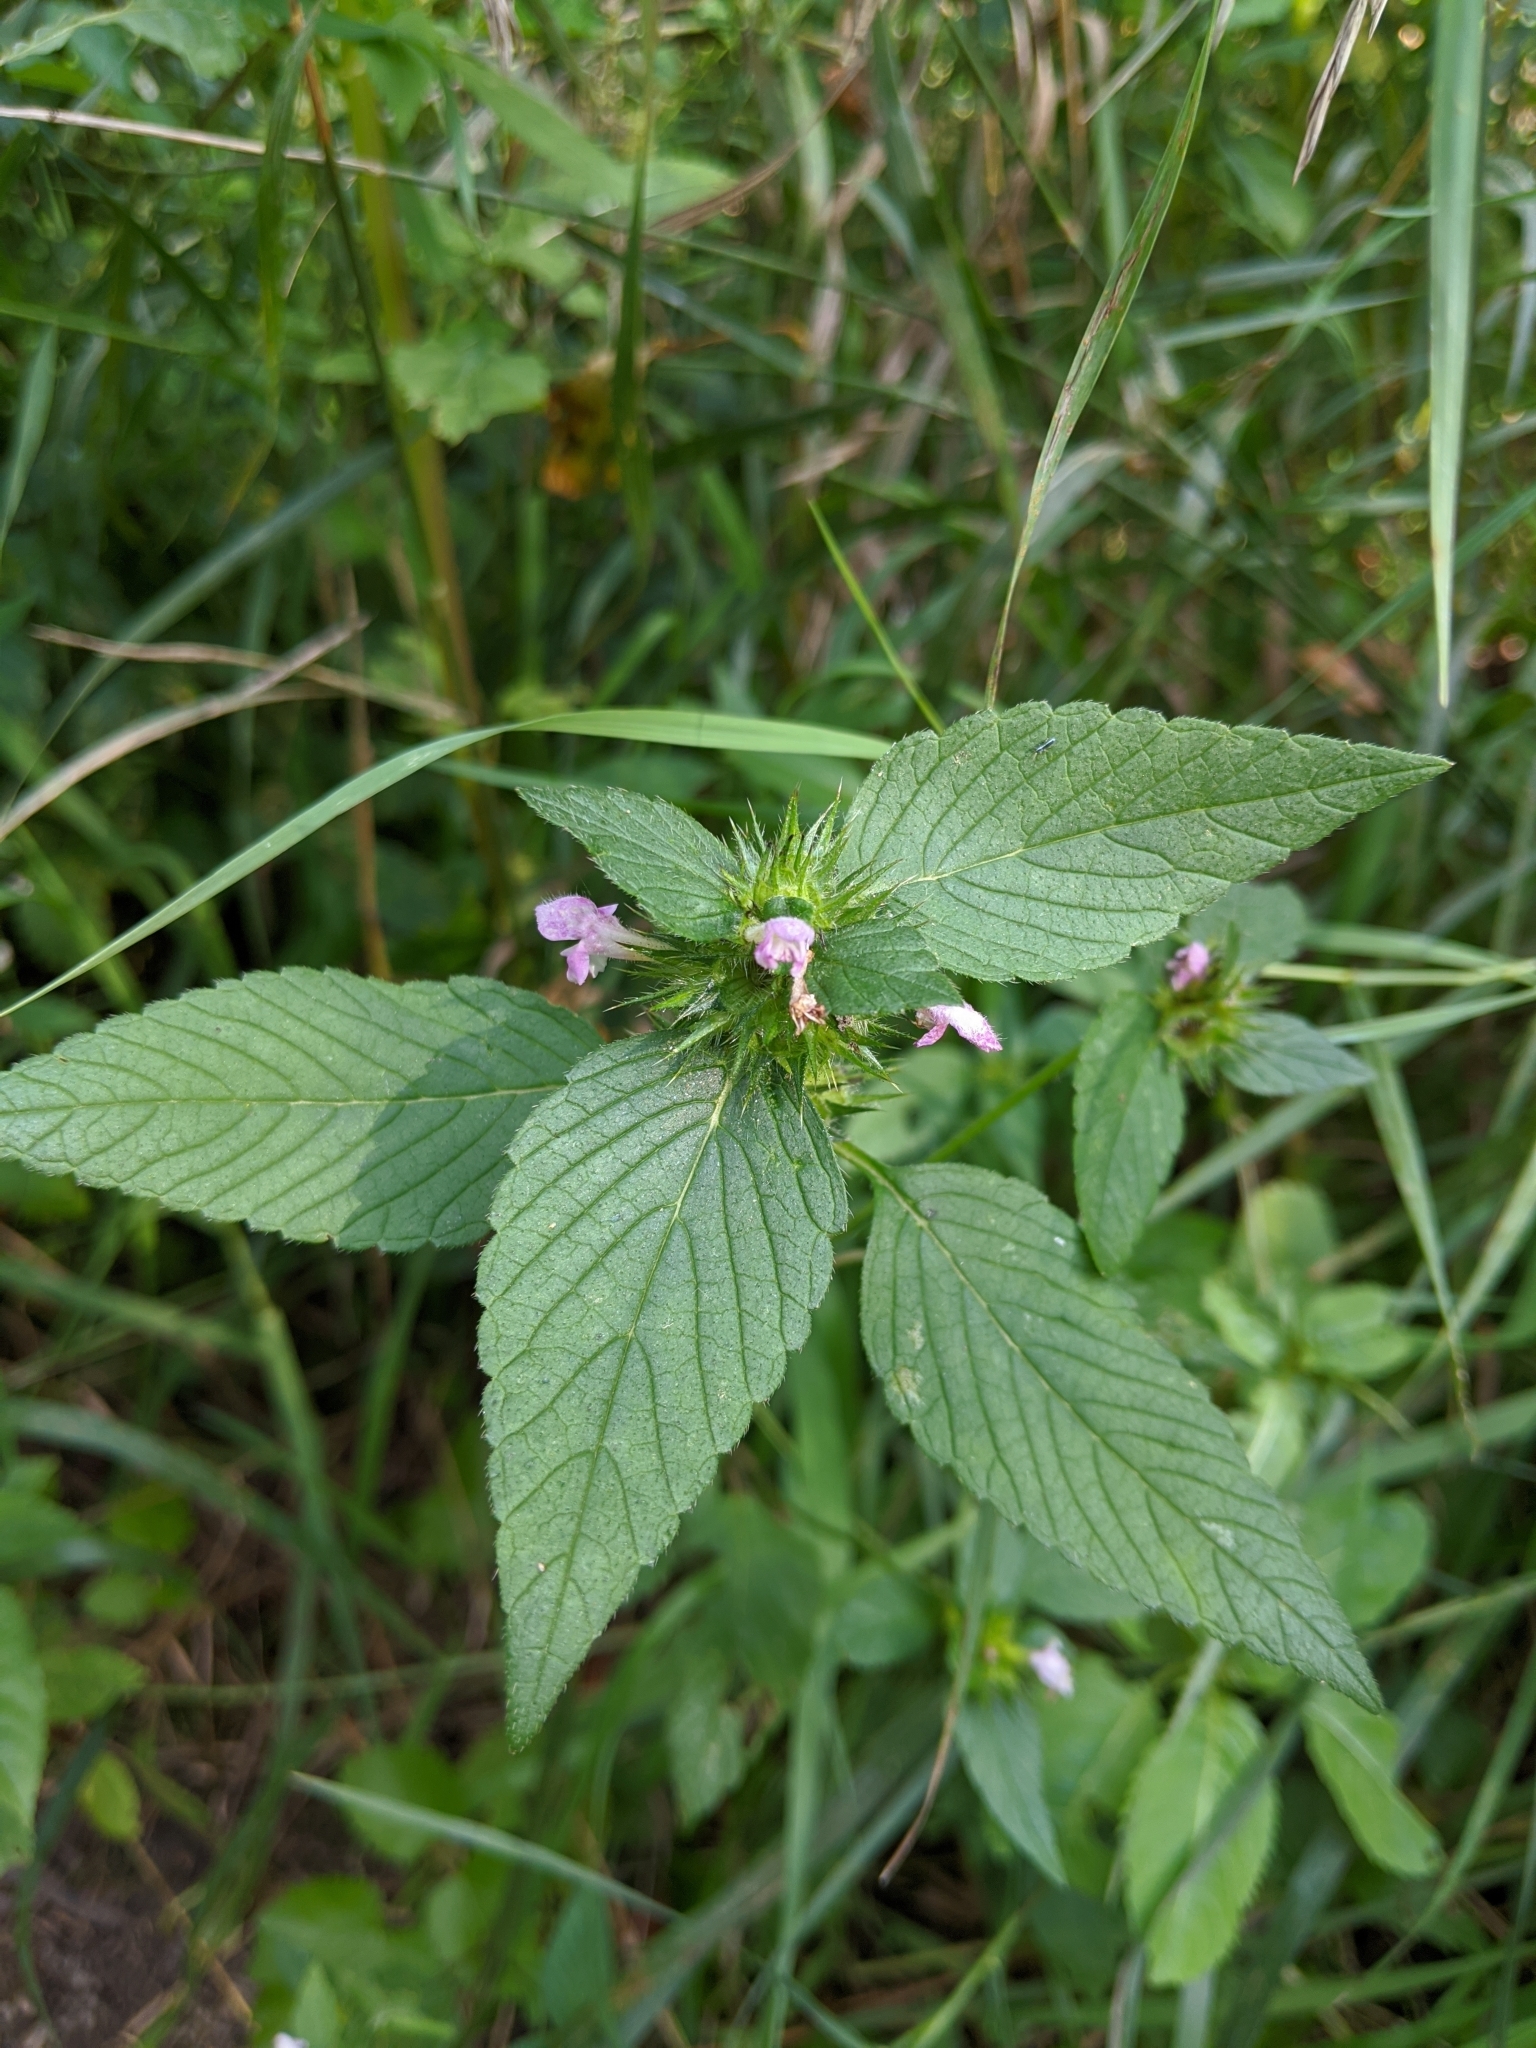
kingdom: Plantae
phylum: Tracheophyta
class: Magnoliopsida
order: Lamiales
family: Lamiaceae
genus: Galeopsis
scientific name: Galeopsis tetrahit
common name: Common hemp-nettle
